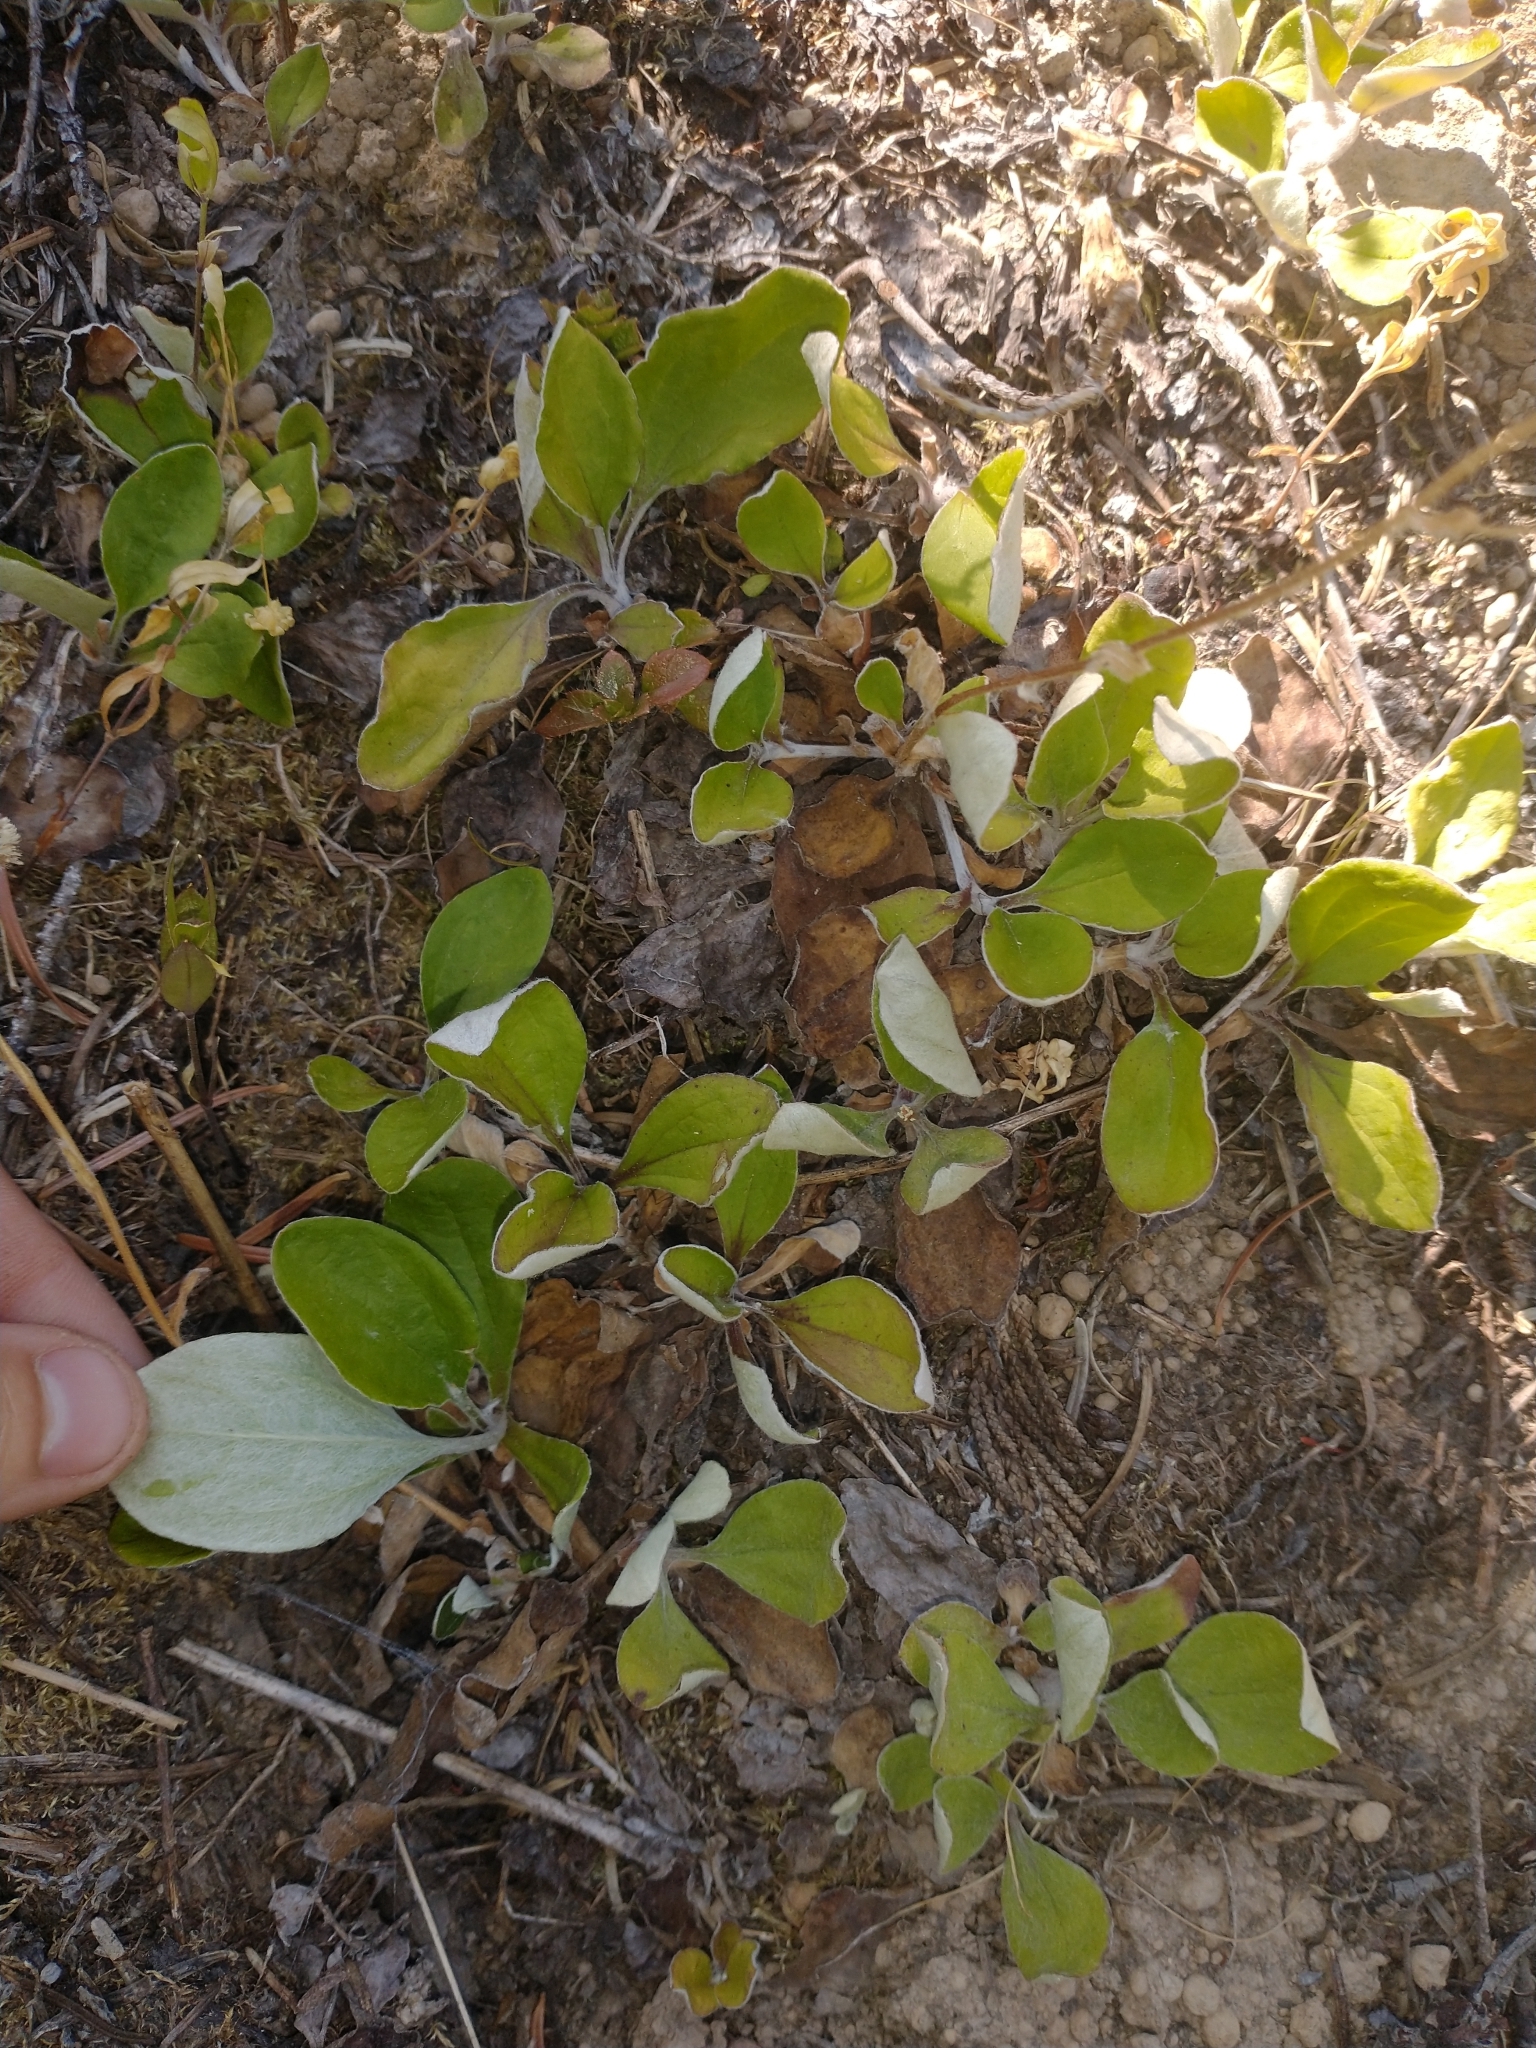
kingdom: Plantae
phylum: Tracheophyta
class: Magnoliopsida
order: Asterales
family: Asteraceae
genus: Antennaria
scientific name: Antennaria racemosa
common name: Racemose pussytoes
